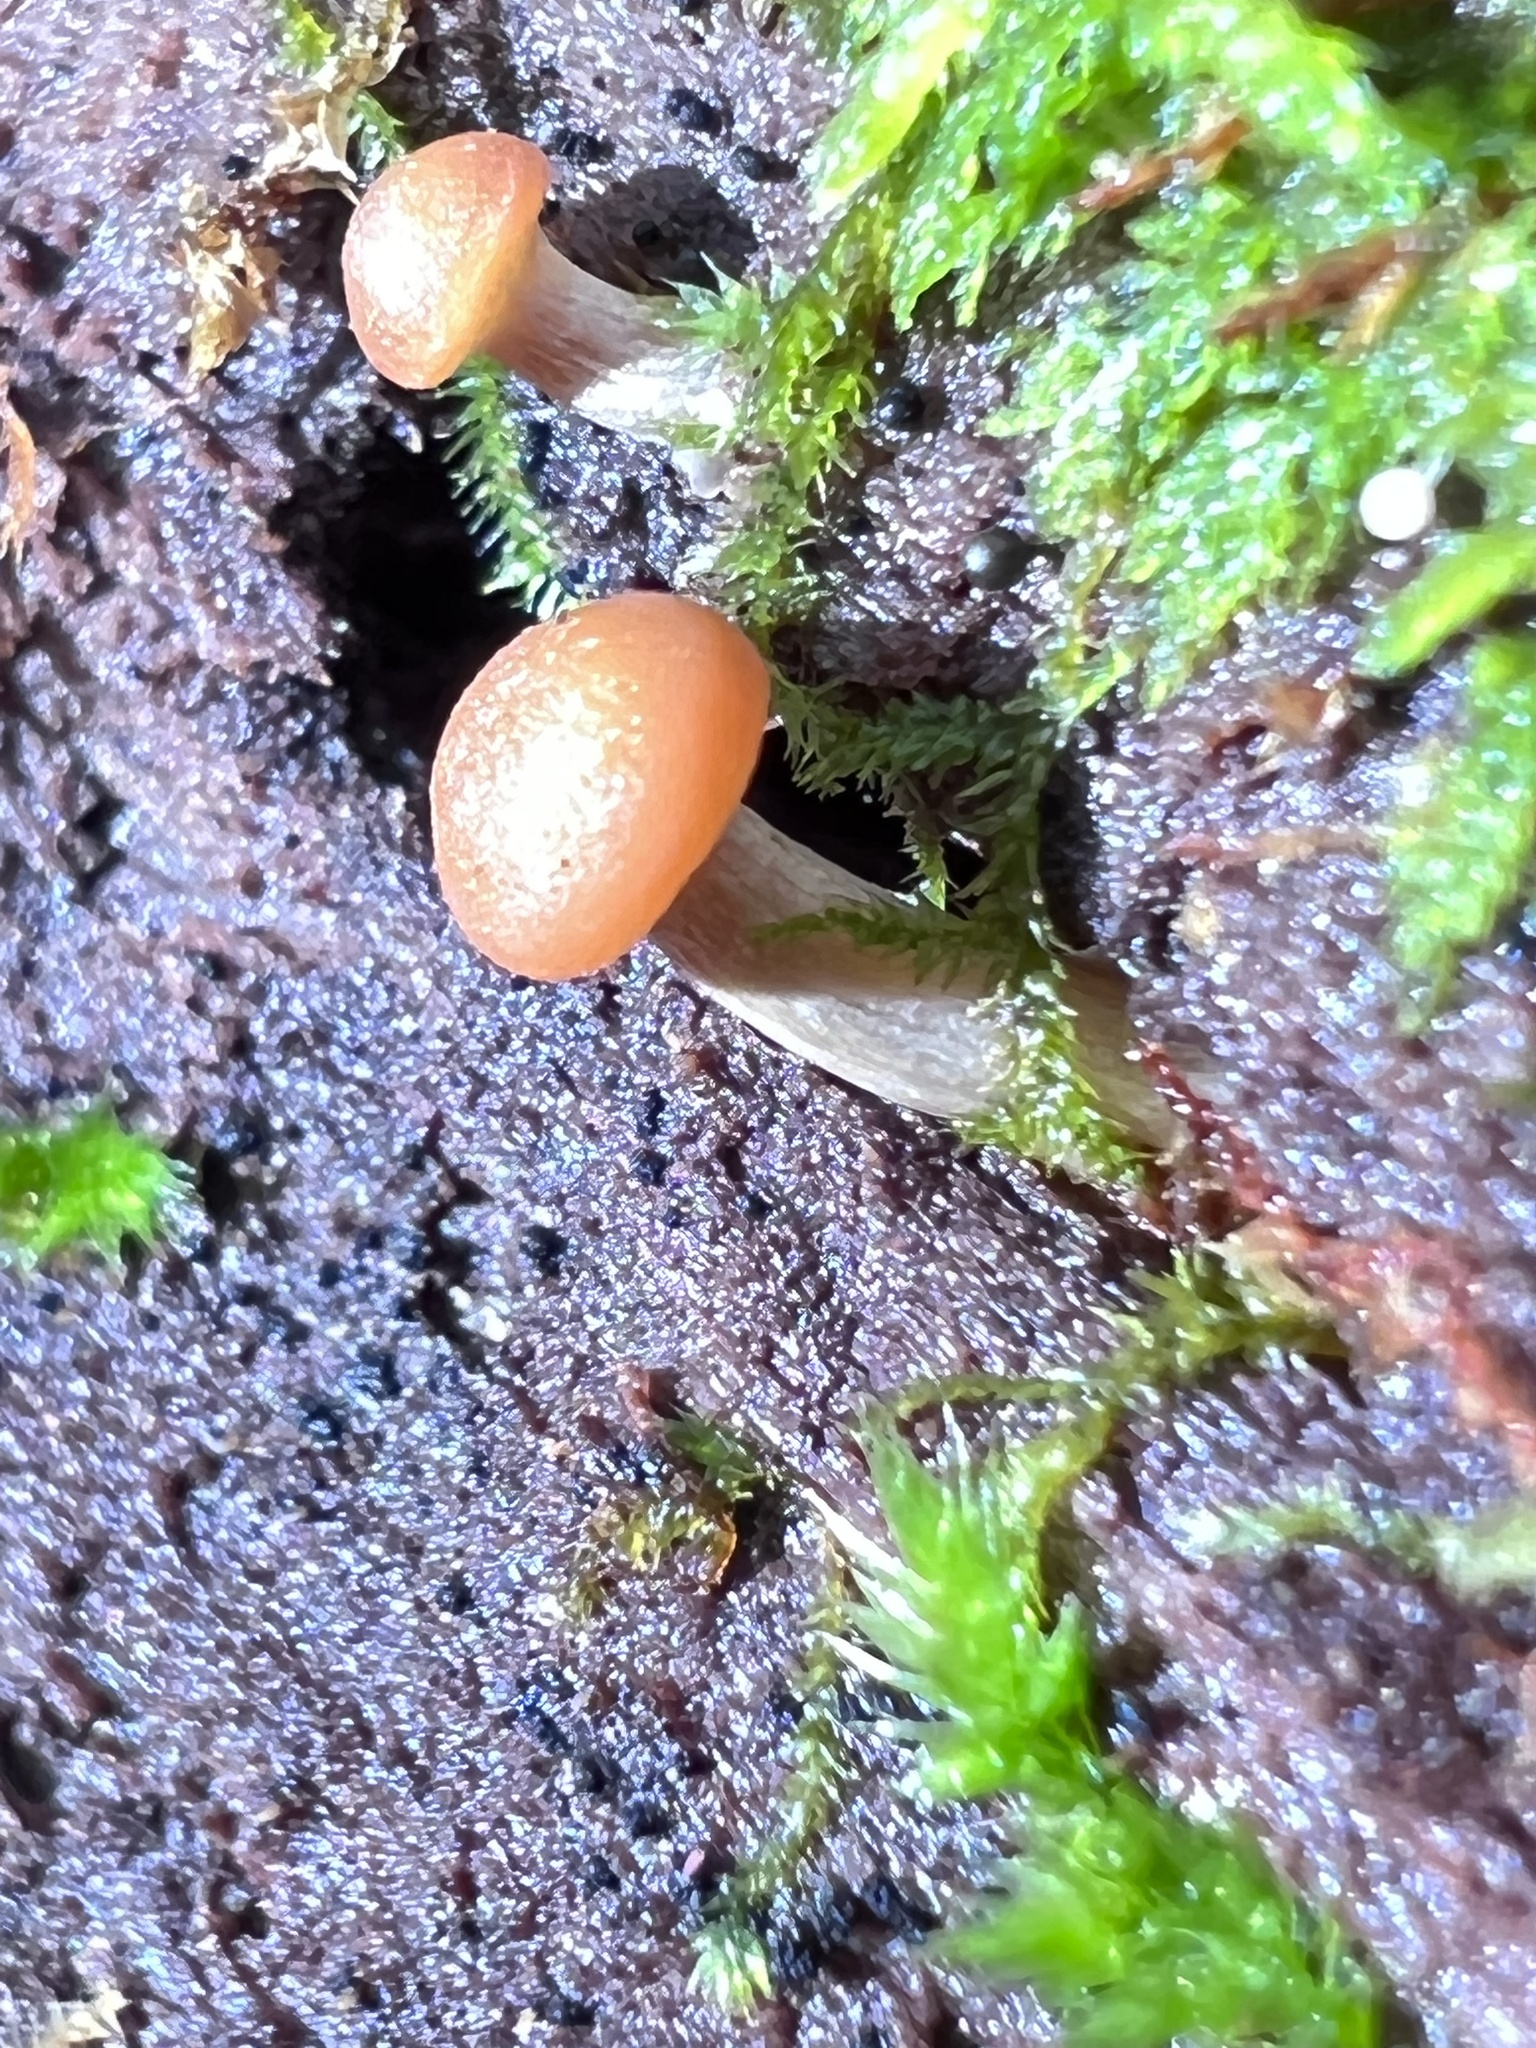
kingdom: Fungi
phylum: Basidiomycota
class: Agaricomycetes
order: Agaricales
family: Hymenogastraceae
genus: Galerina
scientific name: Galerina marginata
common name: Funeral bell
